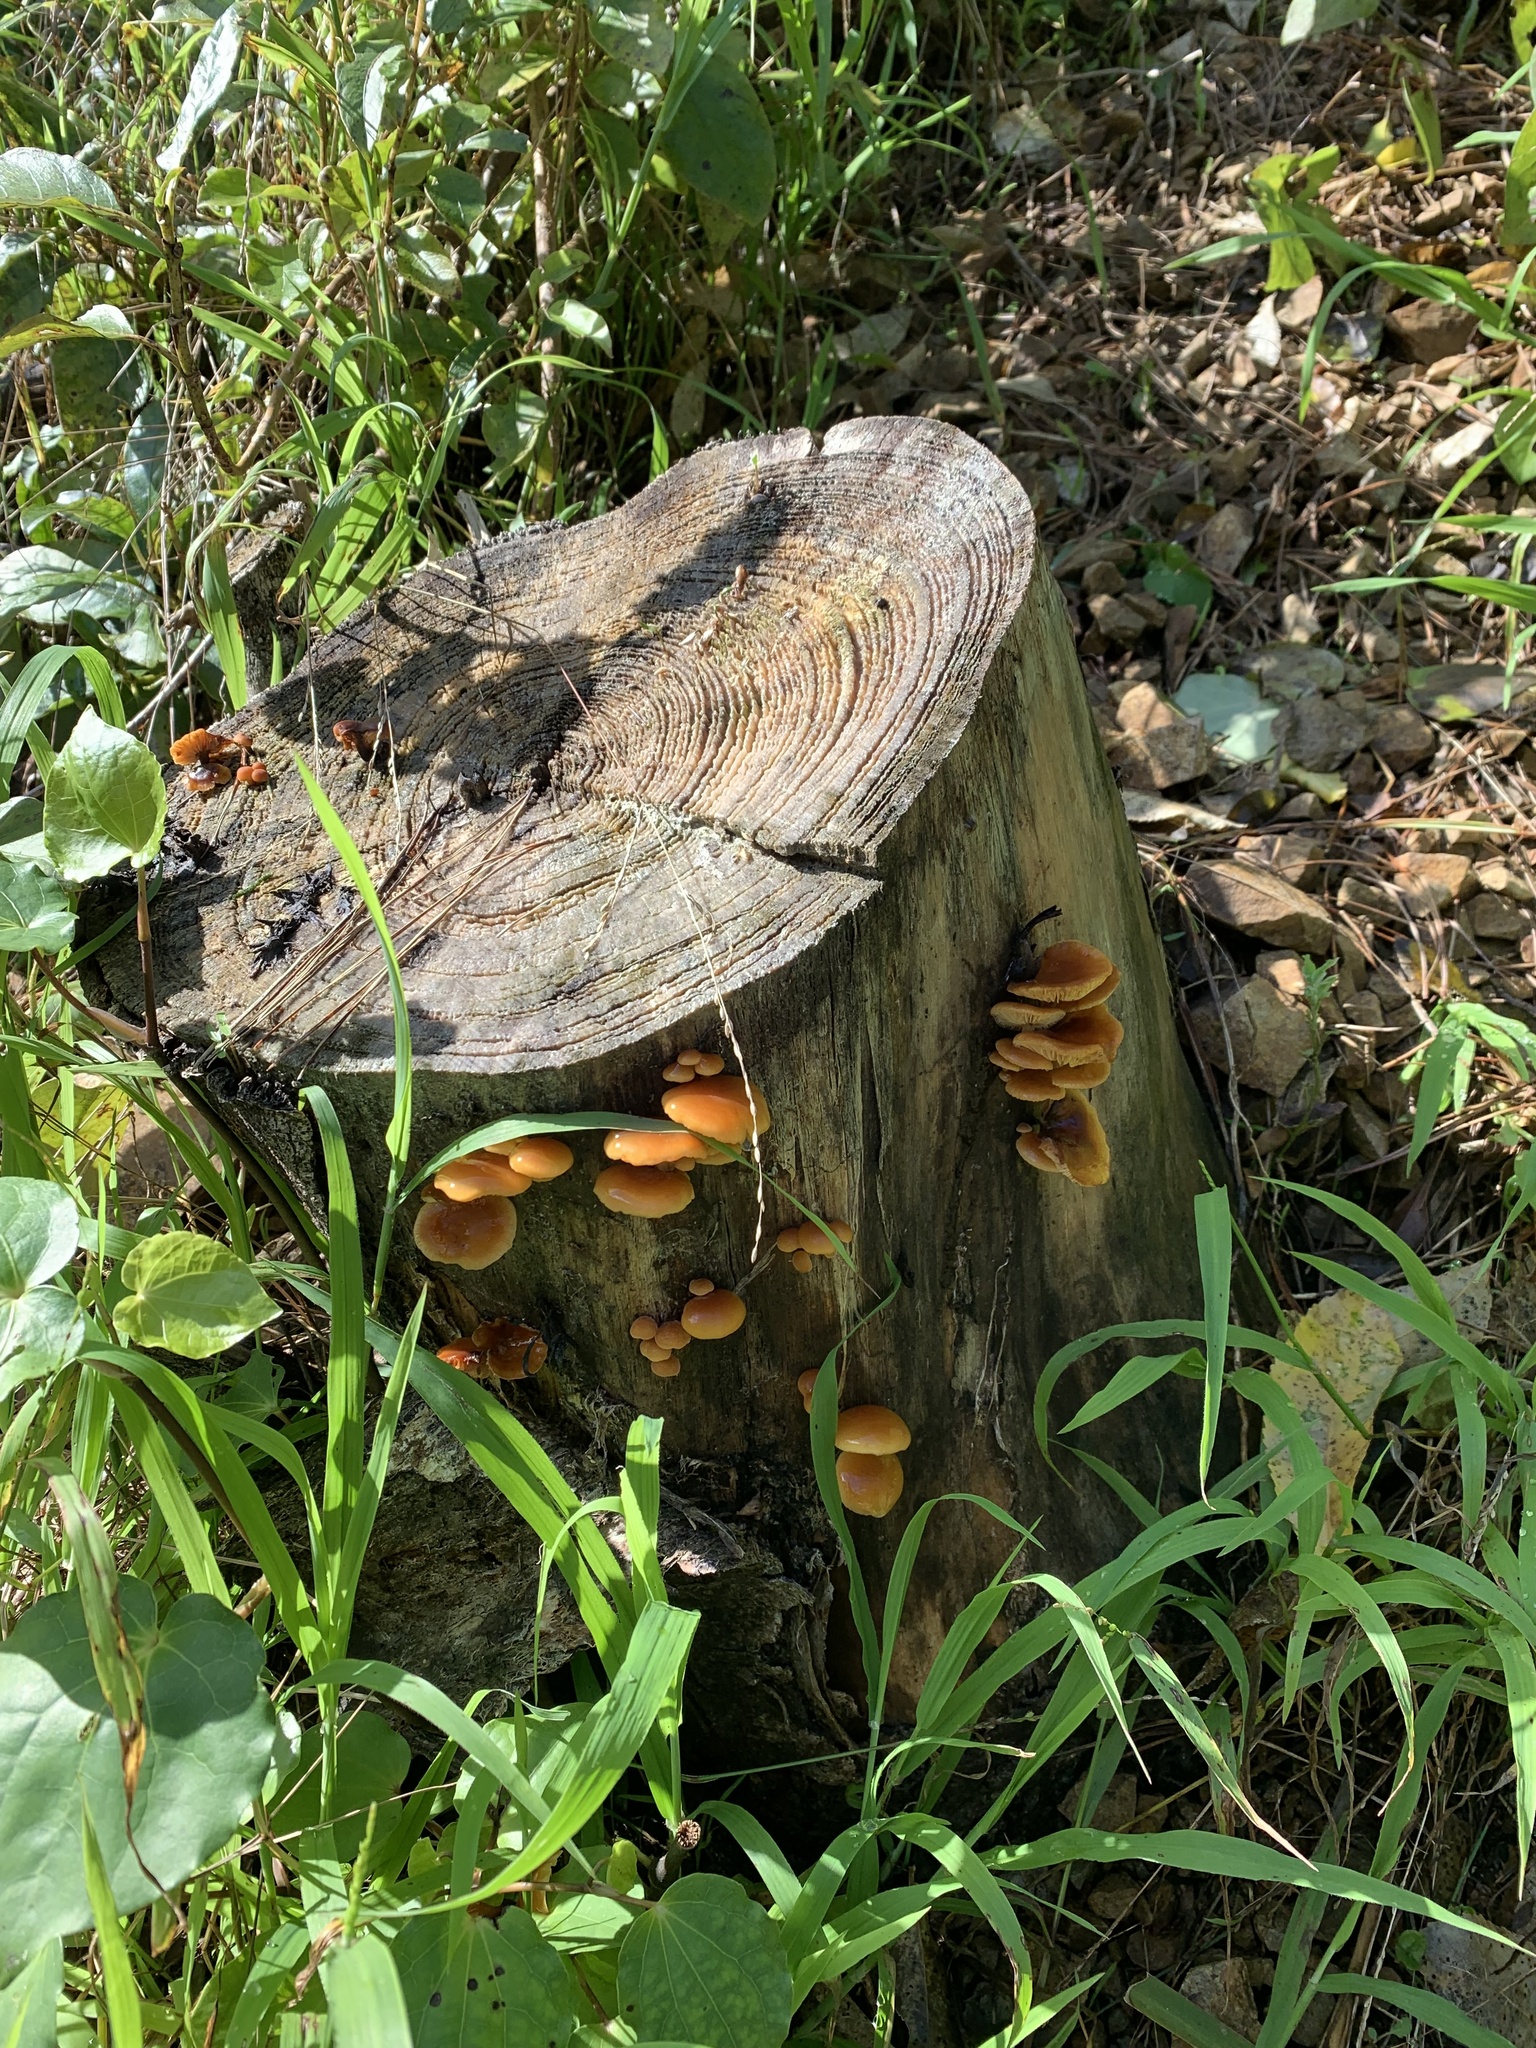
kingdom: Fungi
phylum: Basidiomycota
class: Agaricomycetes
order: Agaricales
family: Physalacriaceae
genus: Flammulina
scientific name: Flammulina velutipes
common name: Velvet shank
